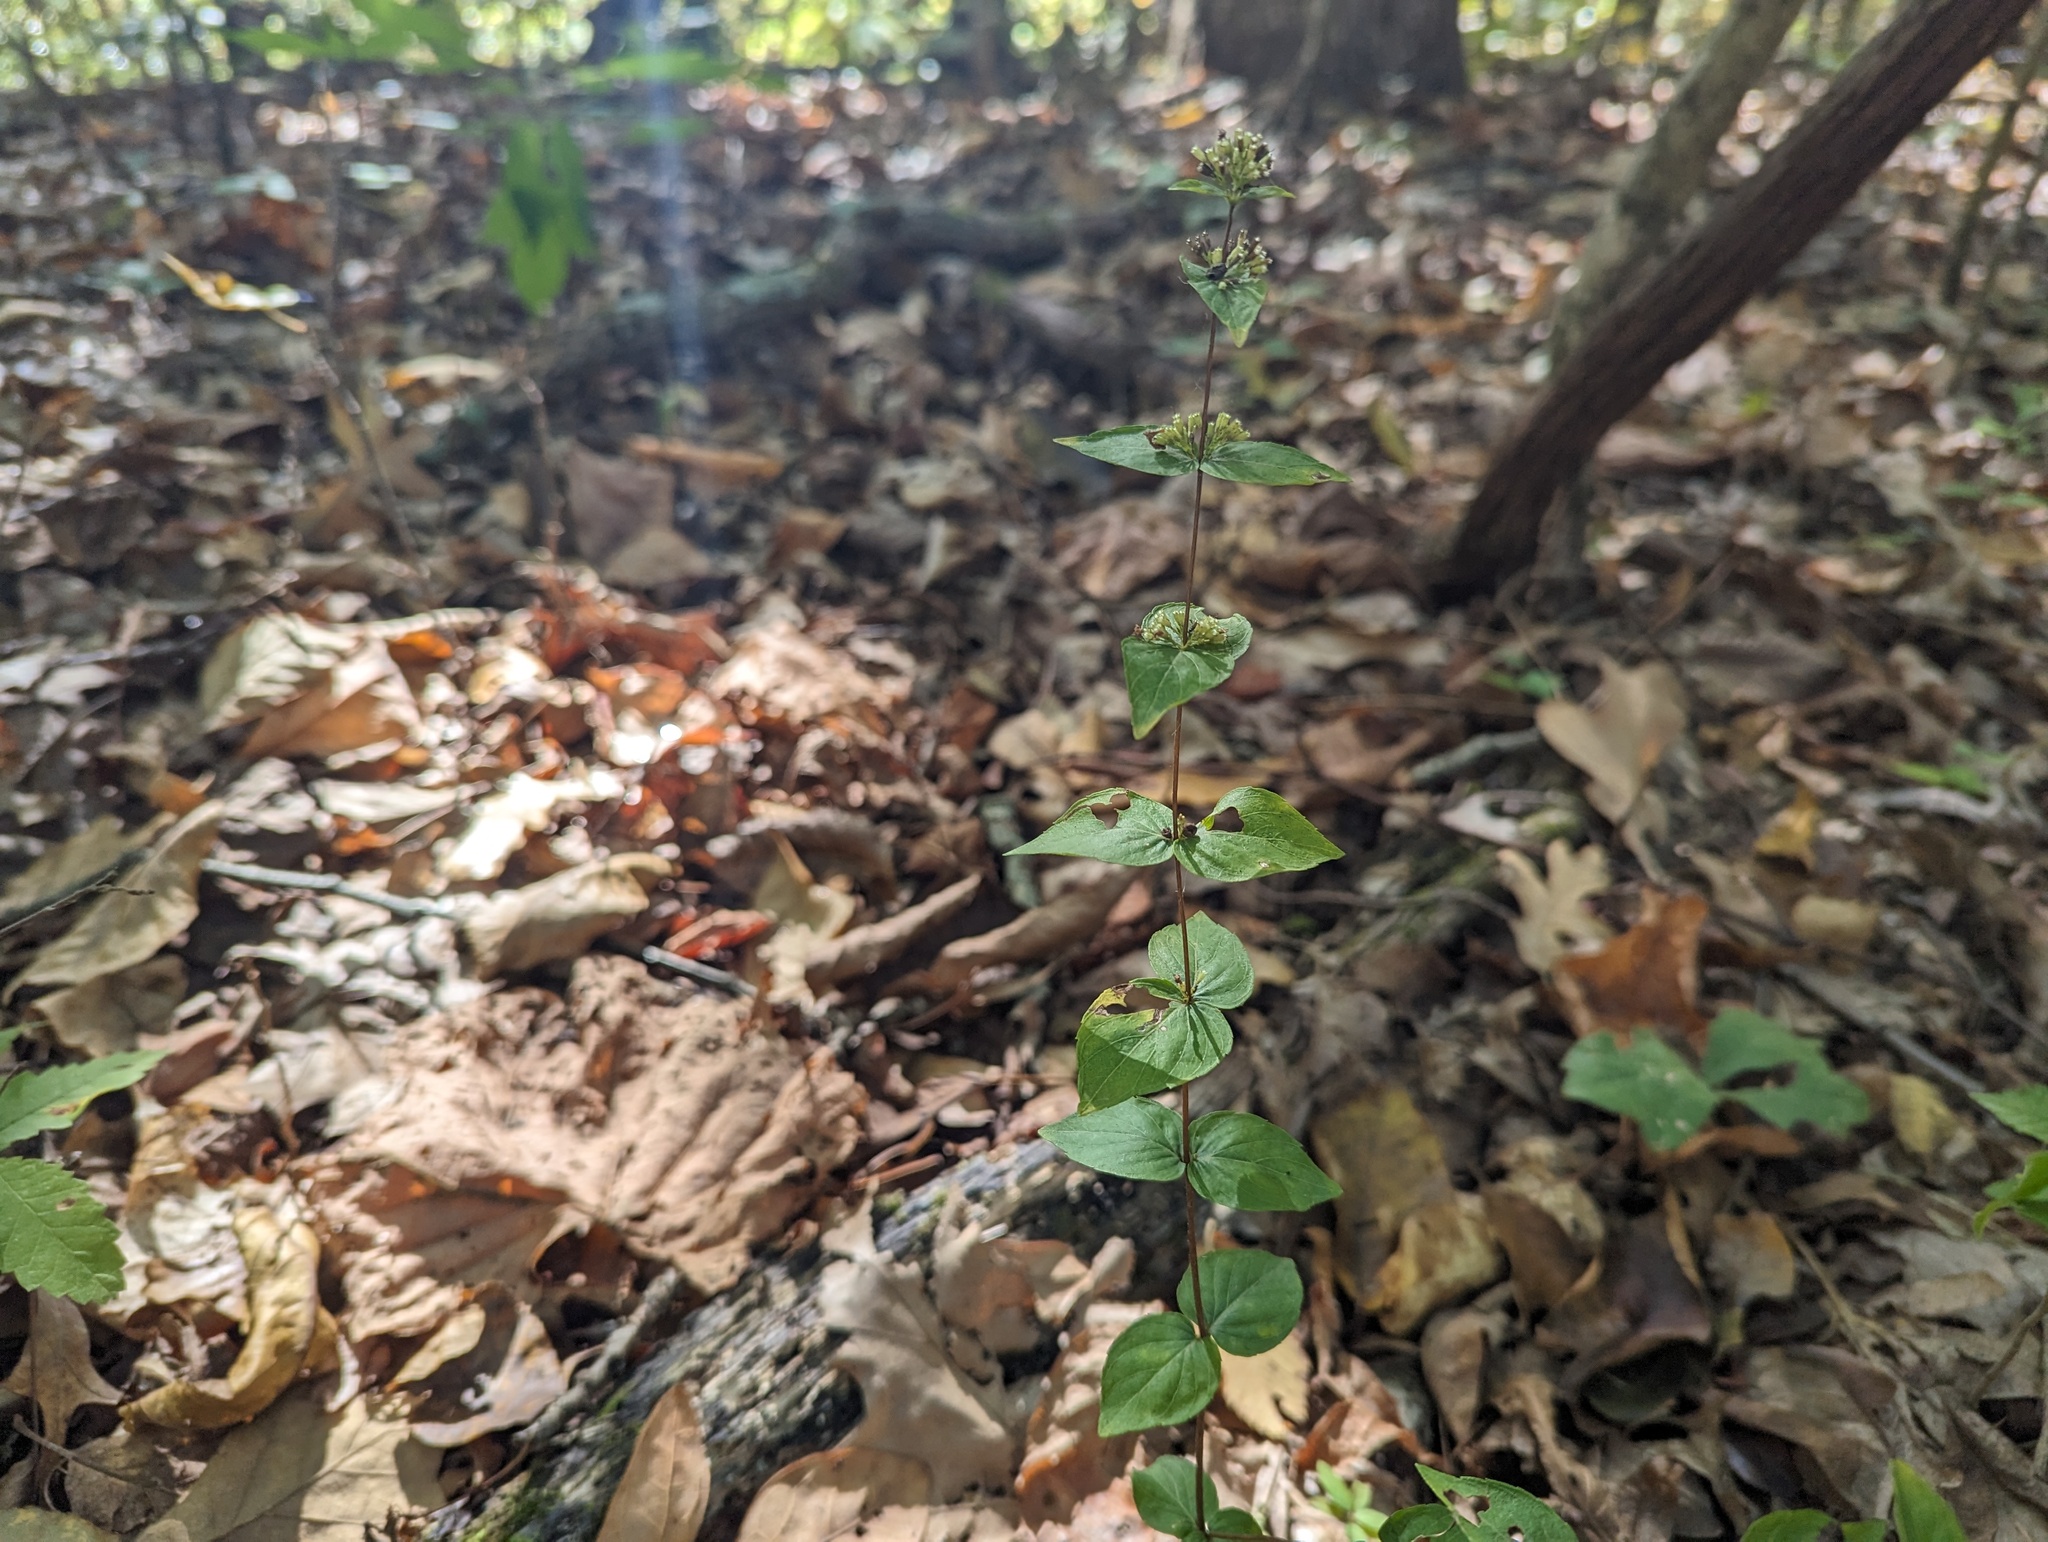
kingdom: Plantae
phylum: Tracheophyta
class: Magnoliopsida
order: Lamiales
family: Lamiaceae
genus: Cunila
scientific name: Cunila origanoides
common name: American dittany
